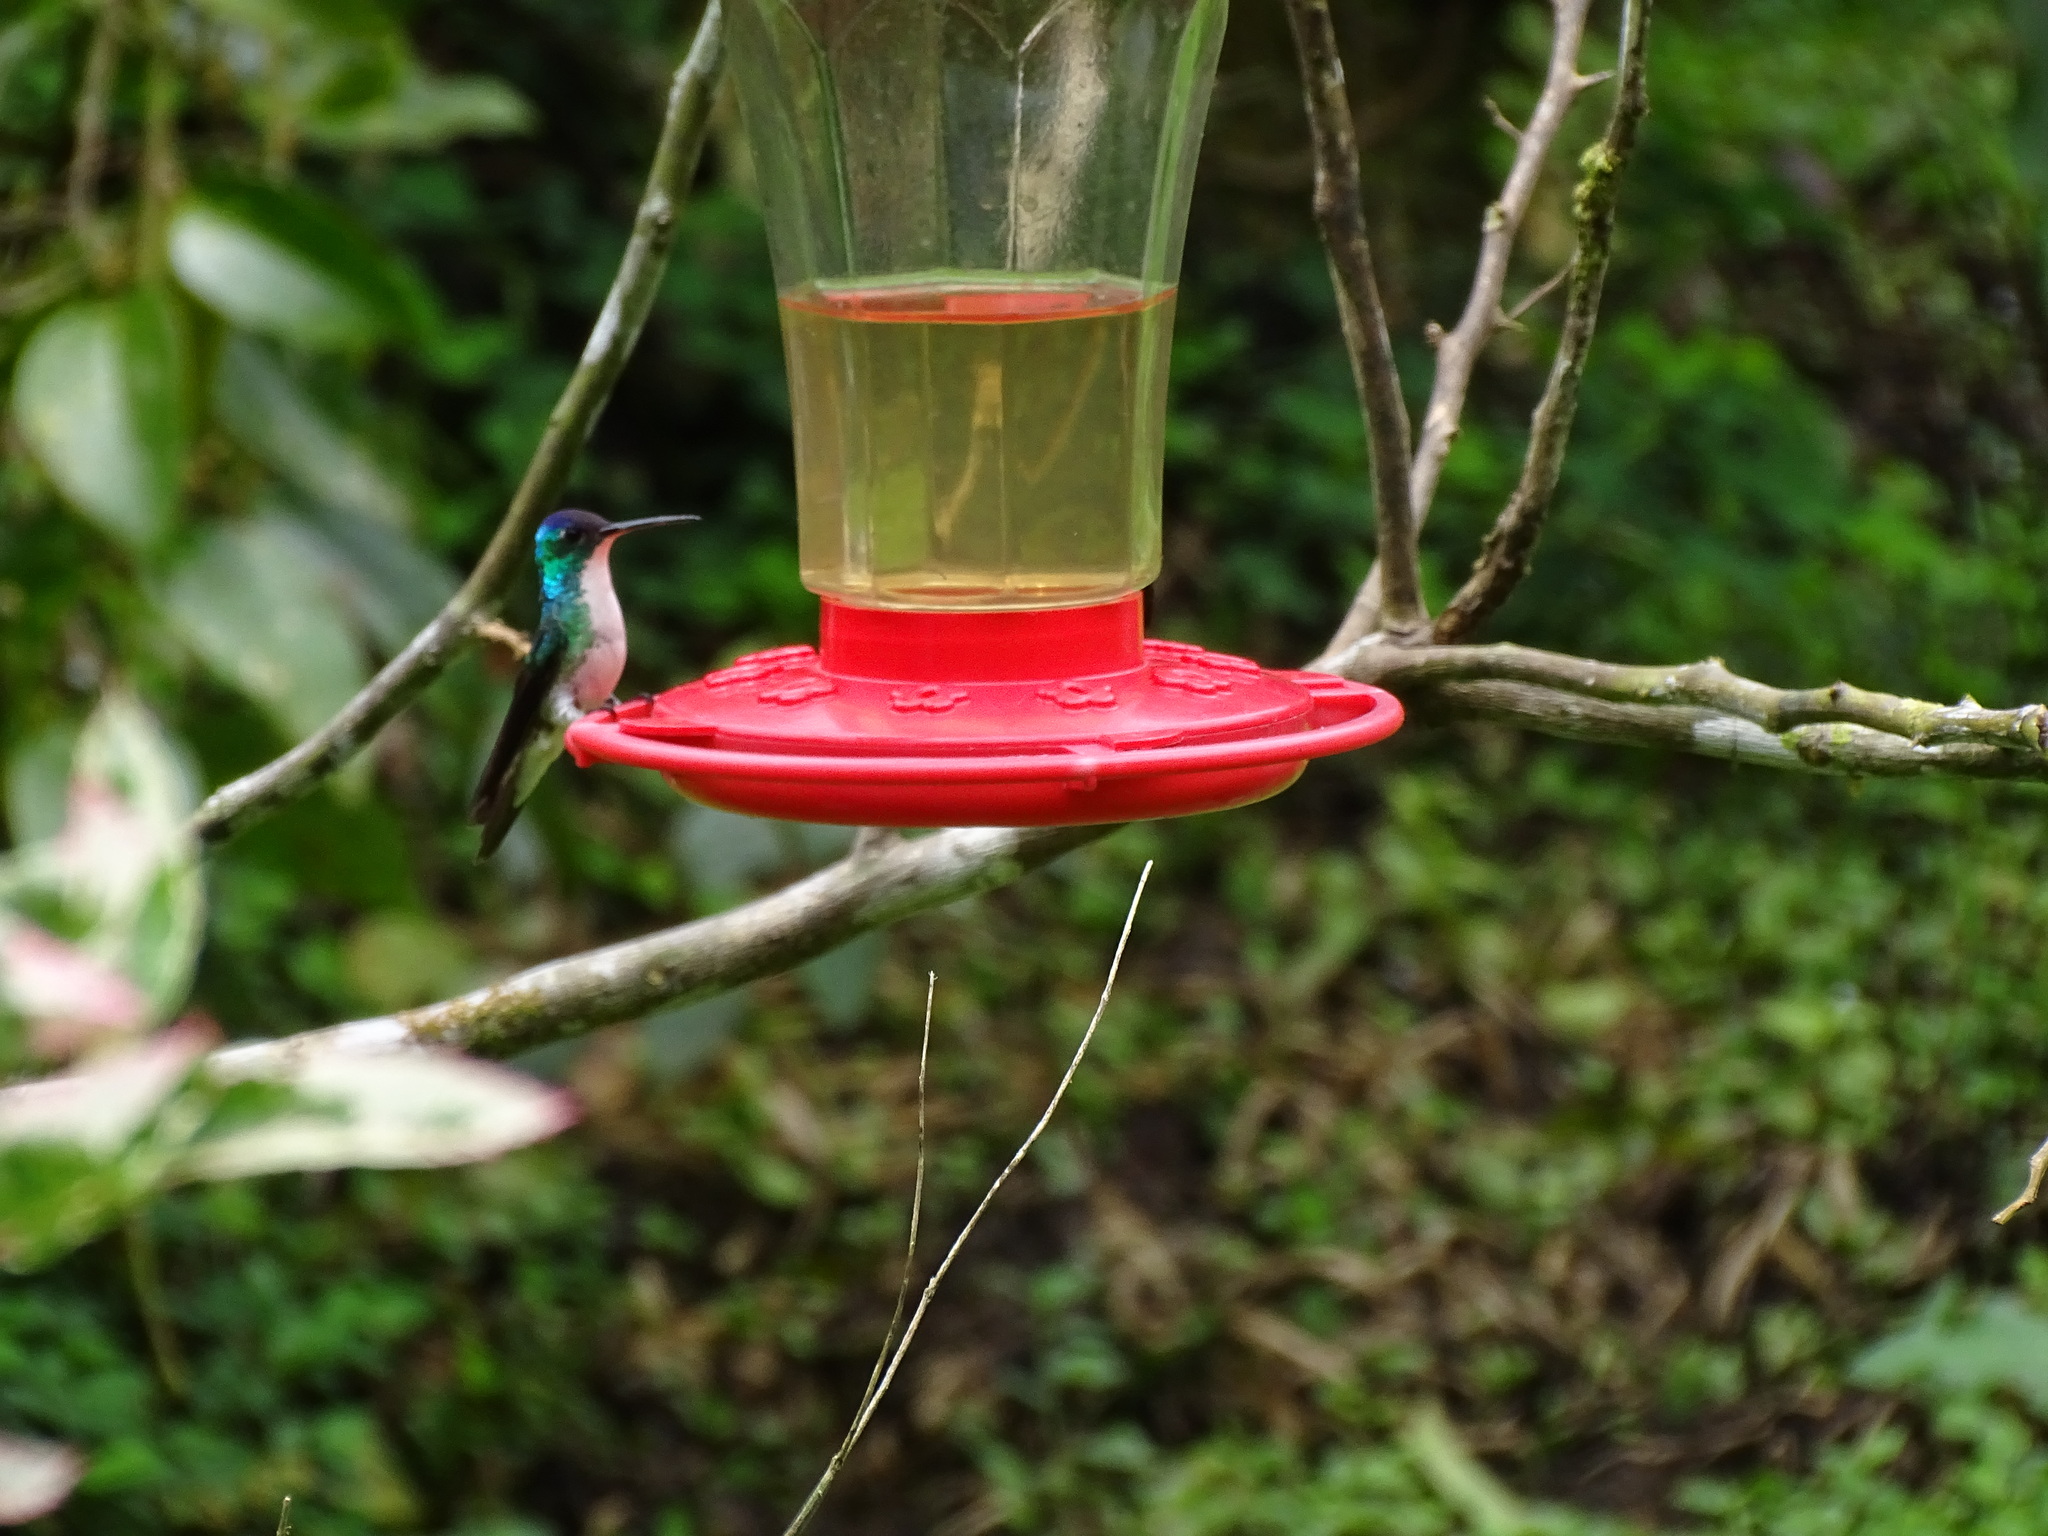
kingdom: Animalia
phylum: Chordata
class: Aves
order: Apodiformes
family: Trochilidae
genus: Uranomitra
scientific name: Uranomitra franciae
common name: Andean emerald
